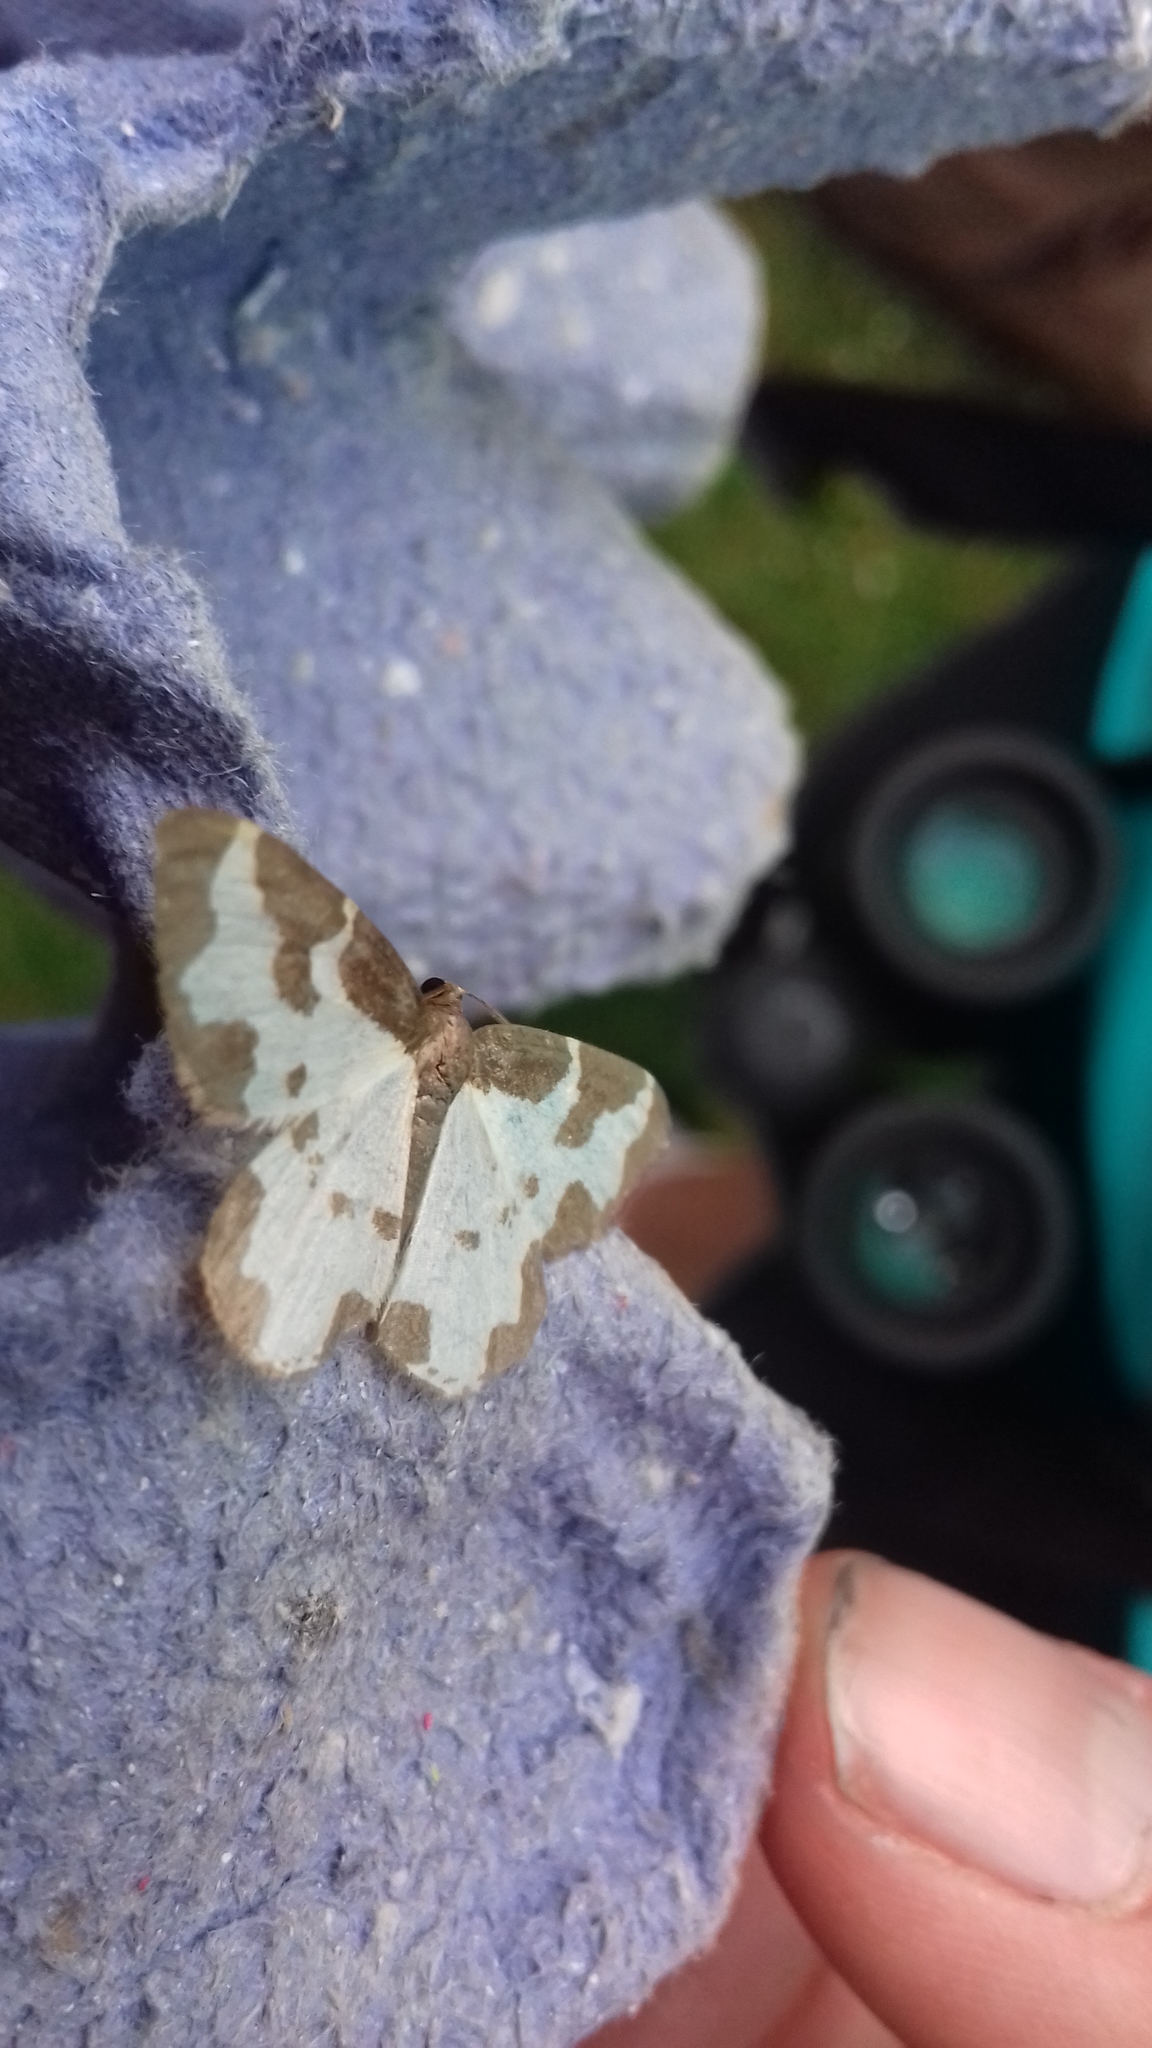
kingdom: Animalia
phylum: Arthropoda
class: Insecta
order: Lepidoptera
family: Geometridae
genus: Lomaspilis
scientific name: Lomaspilis marginata
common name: Clouded border
